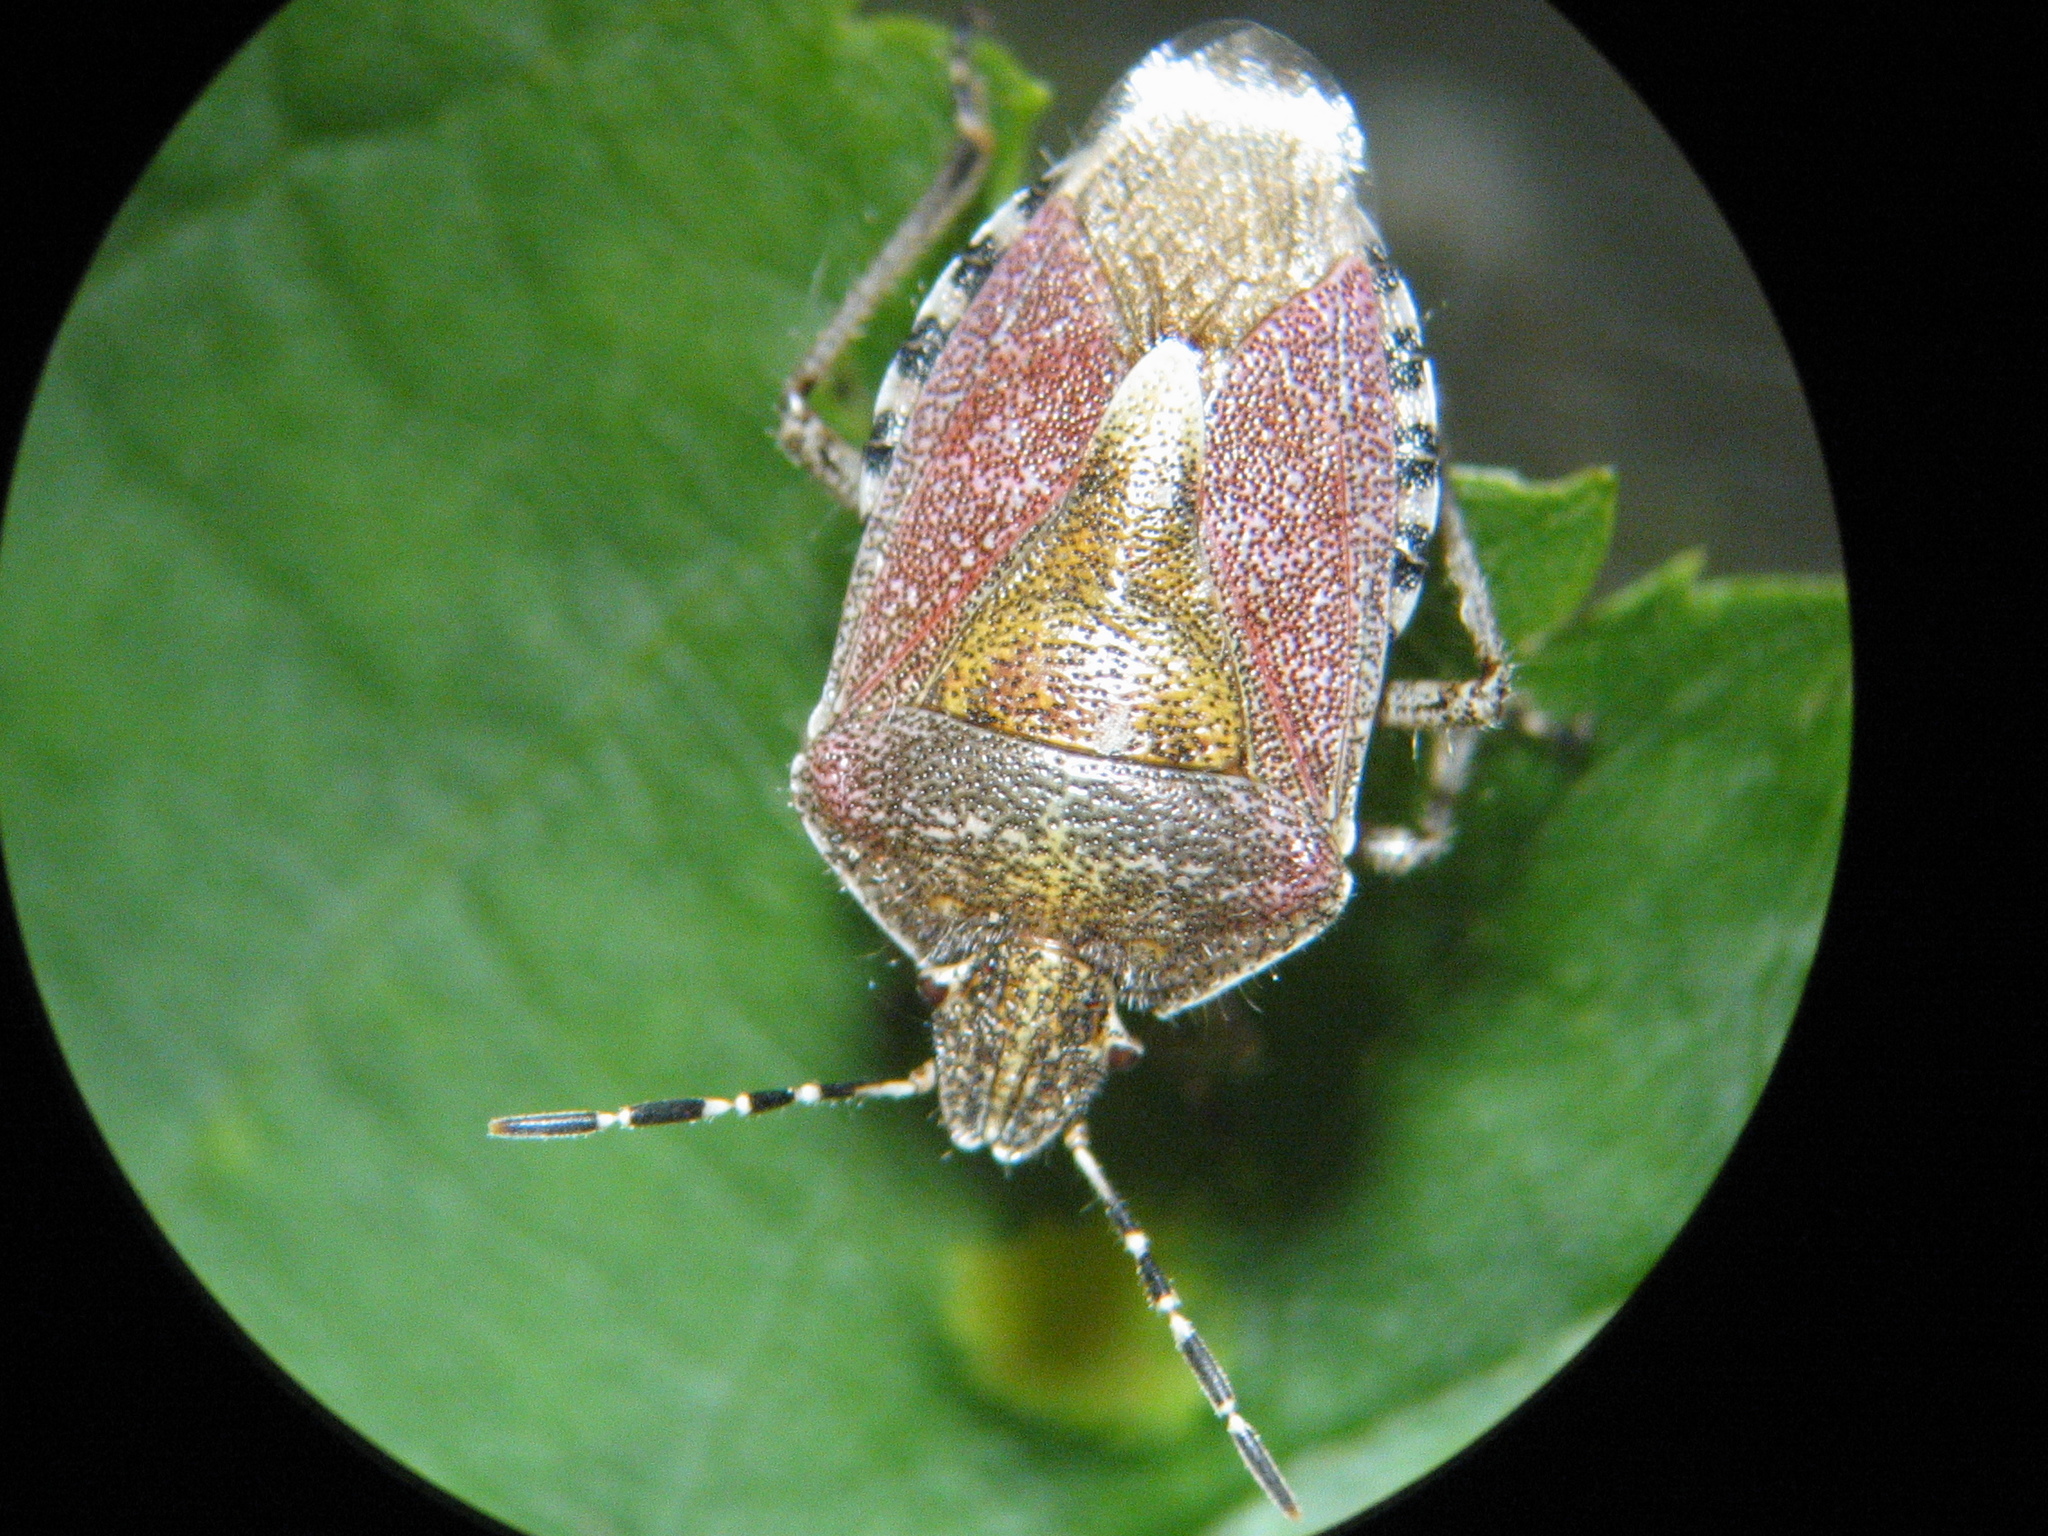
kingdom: Animalia
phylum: Arthropoda
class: Insecta
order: Hemiptera
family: Pentatomidae
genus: Dolycoris
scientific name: Dolycoris baccarum
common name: Sloe bug
